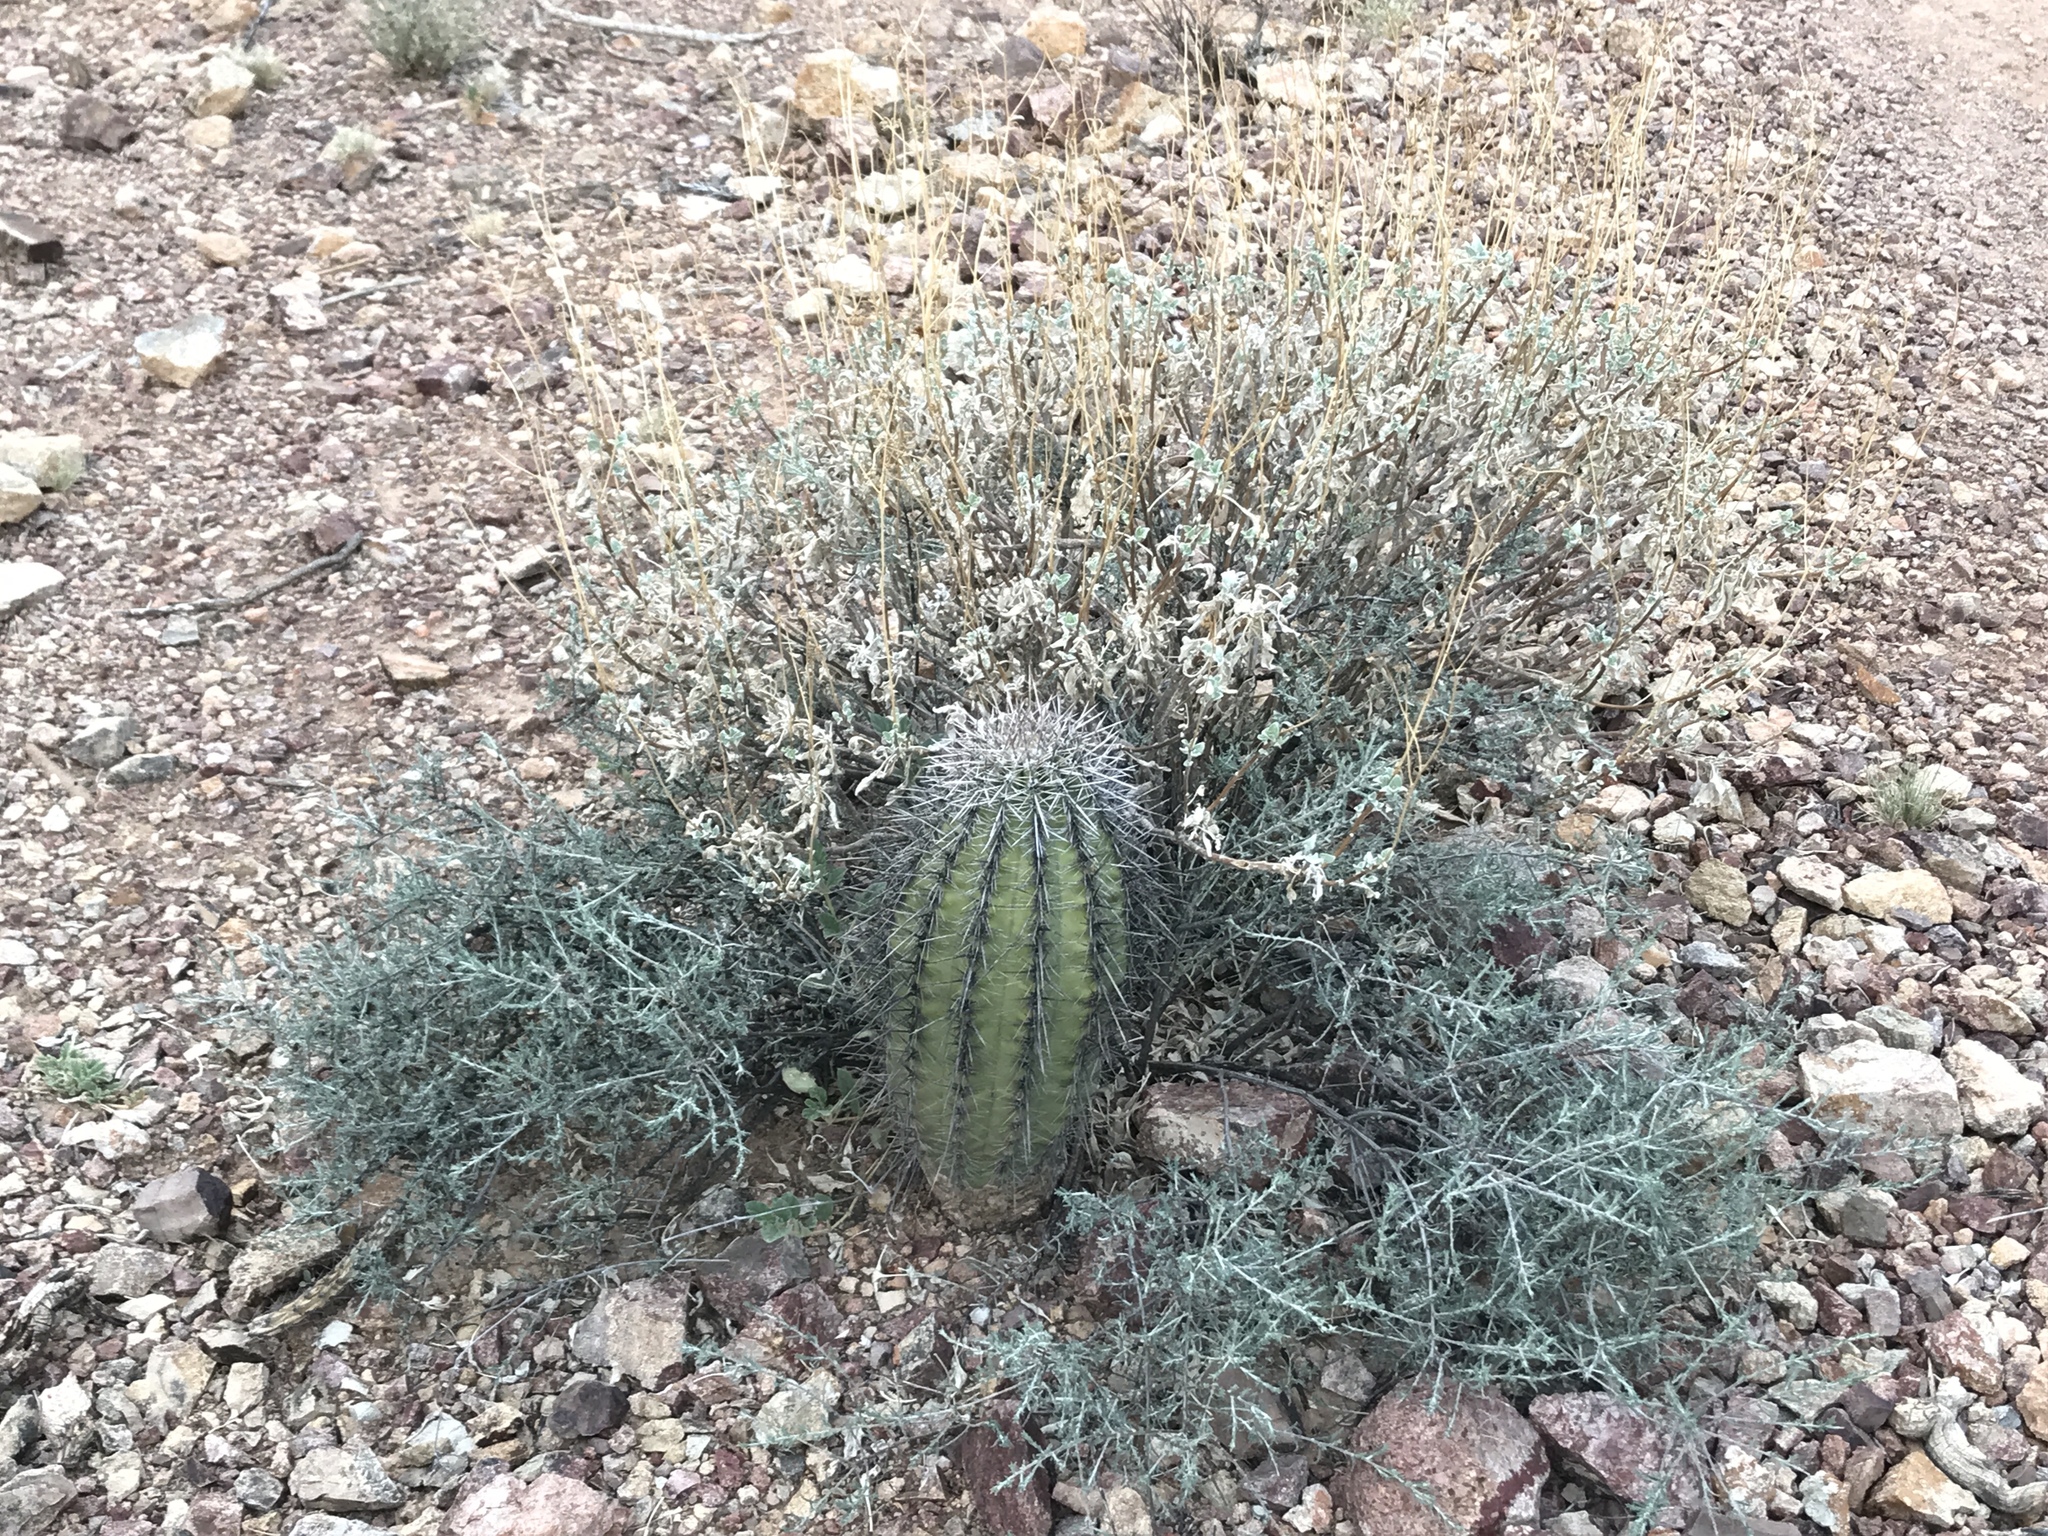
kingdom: Plantae
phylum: Tracheophyta
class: Magnoliopsida
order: Caryophyllales
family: Cactaceae
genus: Carnegiea
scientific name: Carnegiea gigantea
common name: Saguaro
